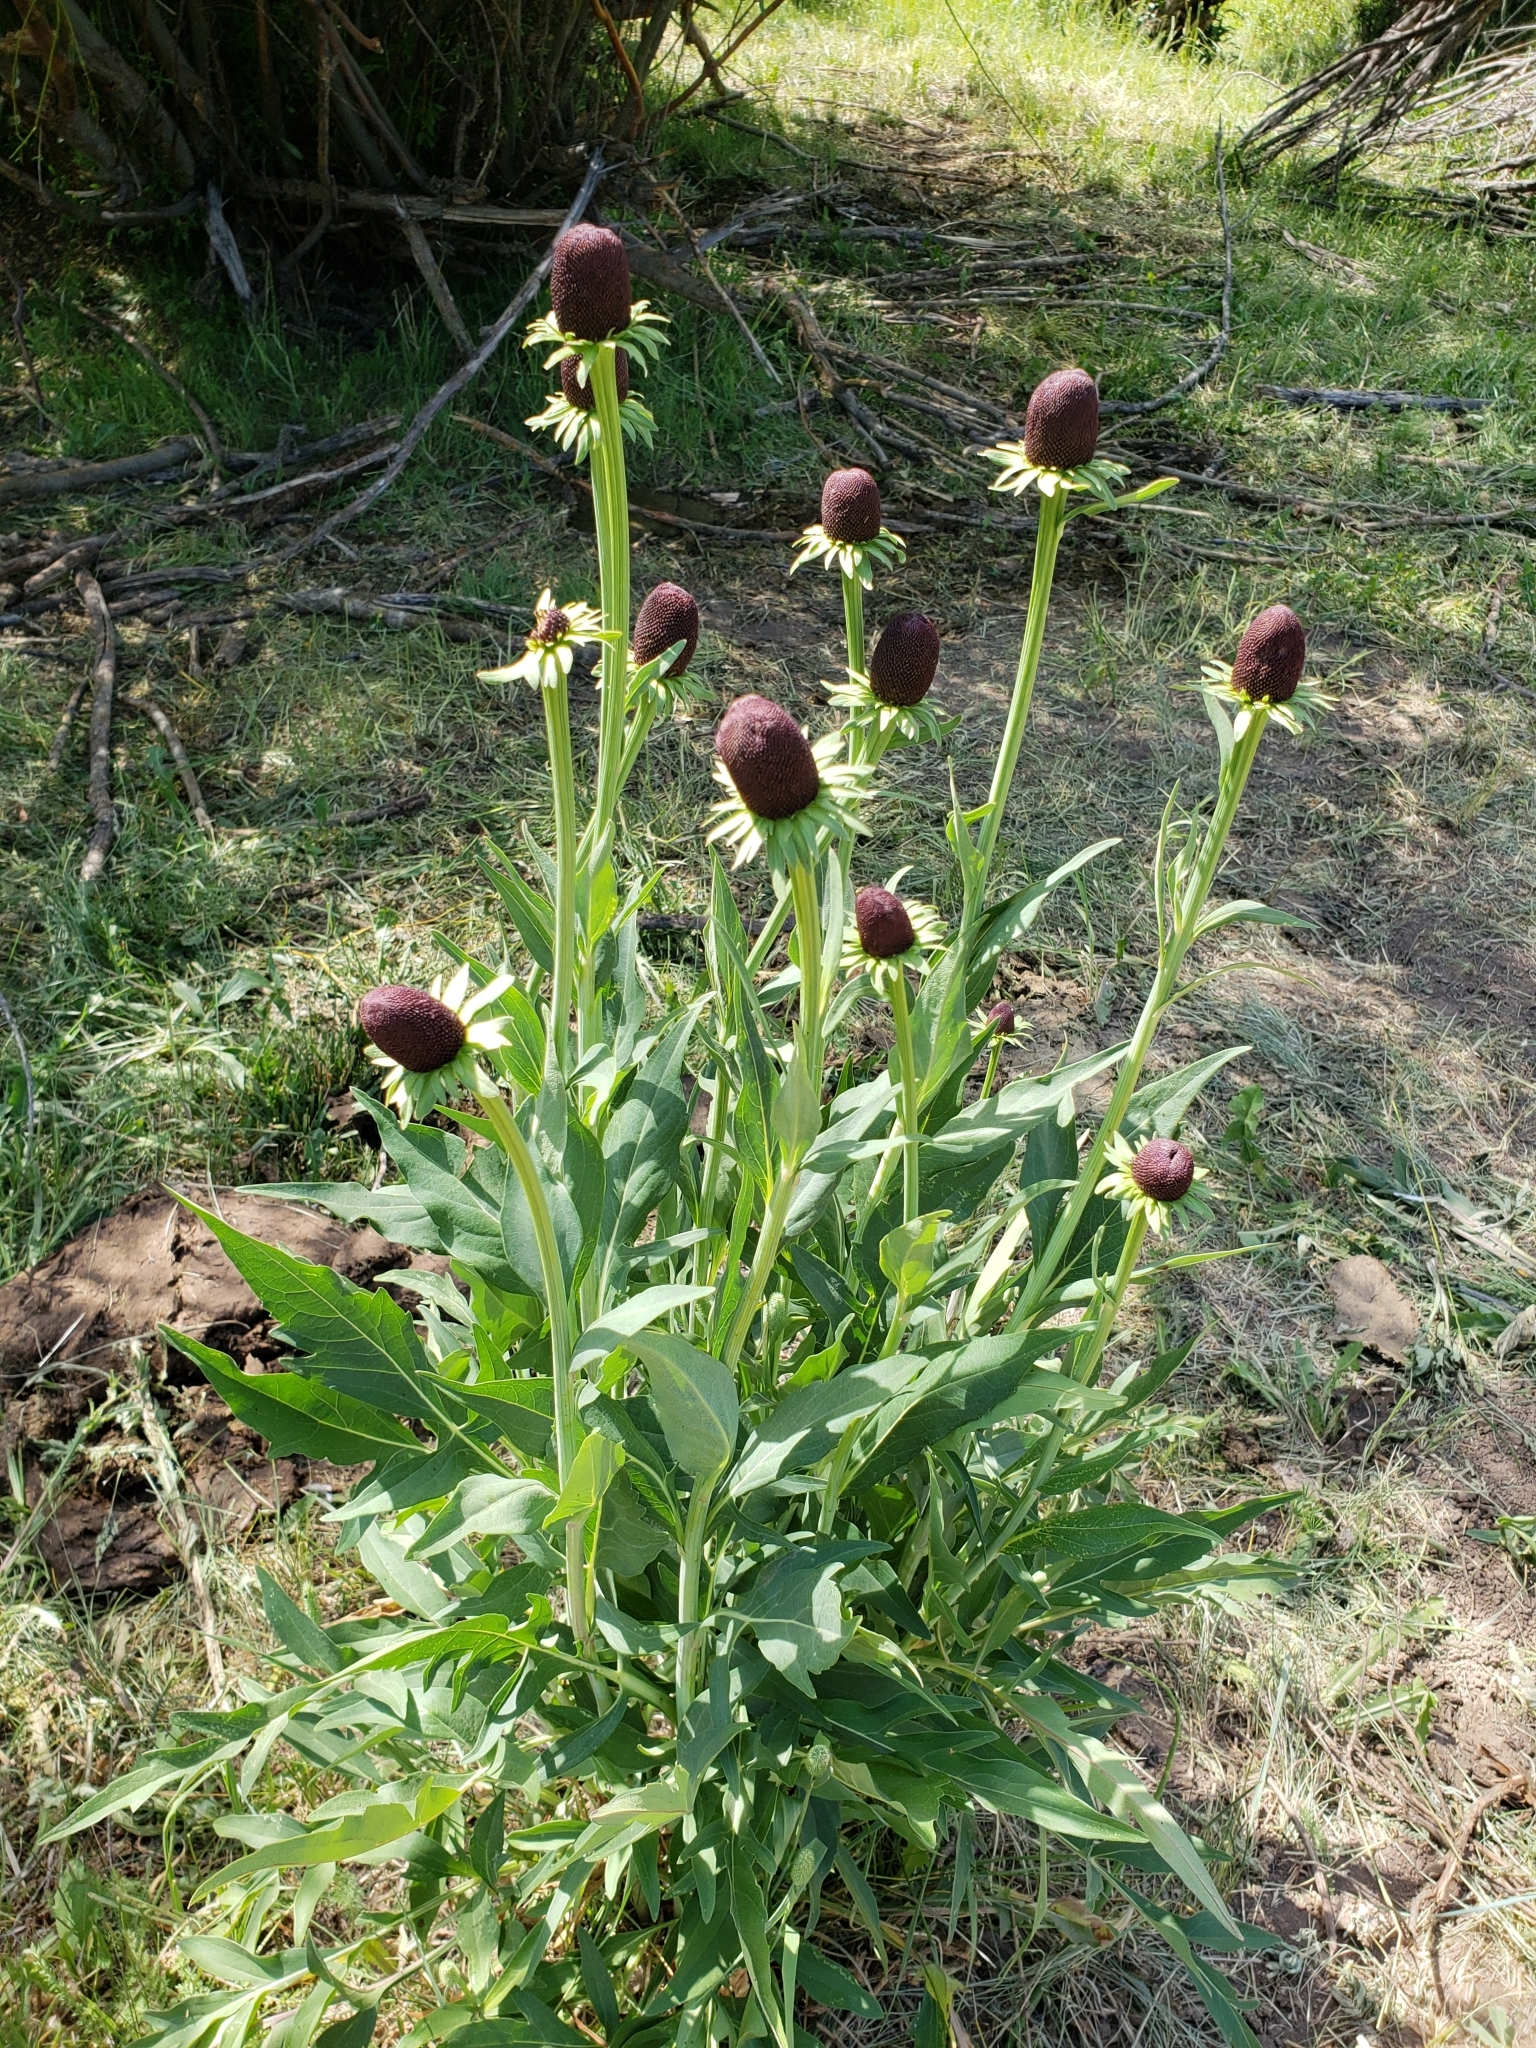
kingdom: Plantae
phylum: Tracheophyta
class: Magnoliopsida
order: Asterales
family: Asteraceae
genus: Rudbeckia
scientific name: Rudbeckia occidentalis
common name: Western coneflower
